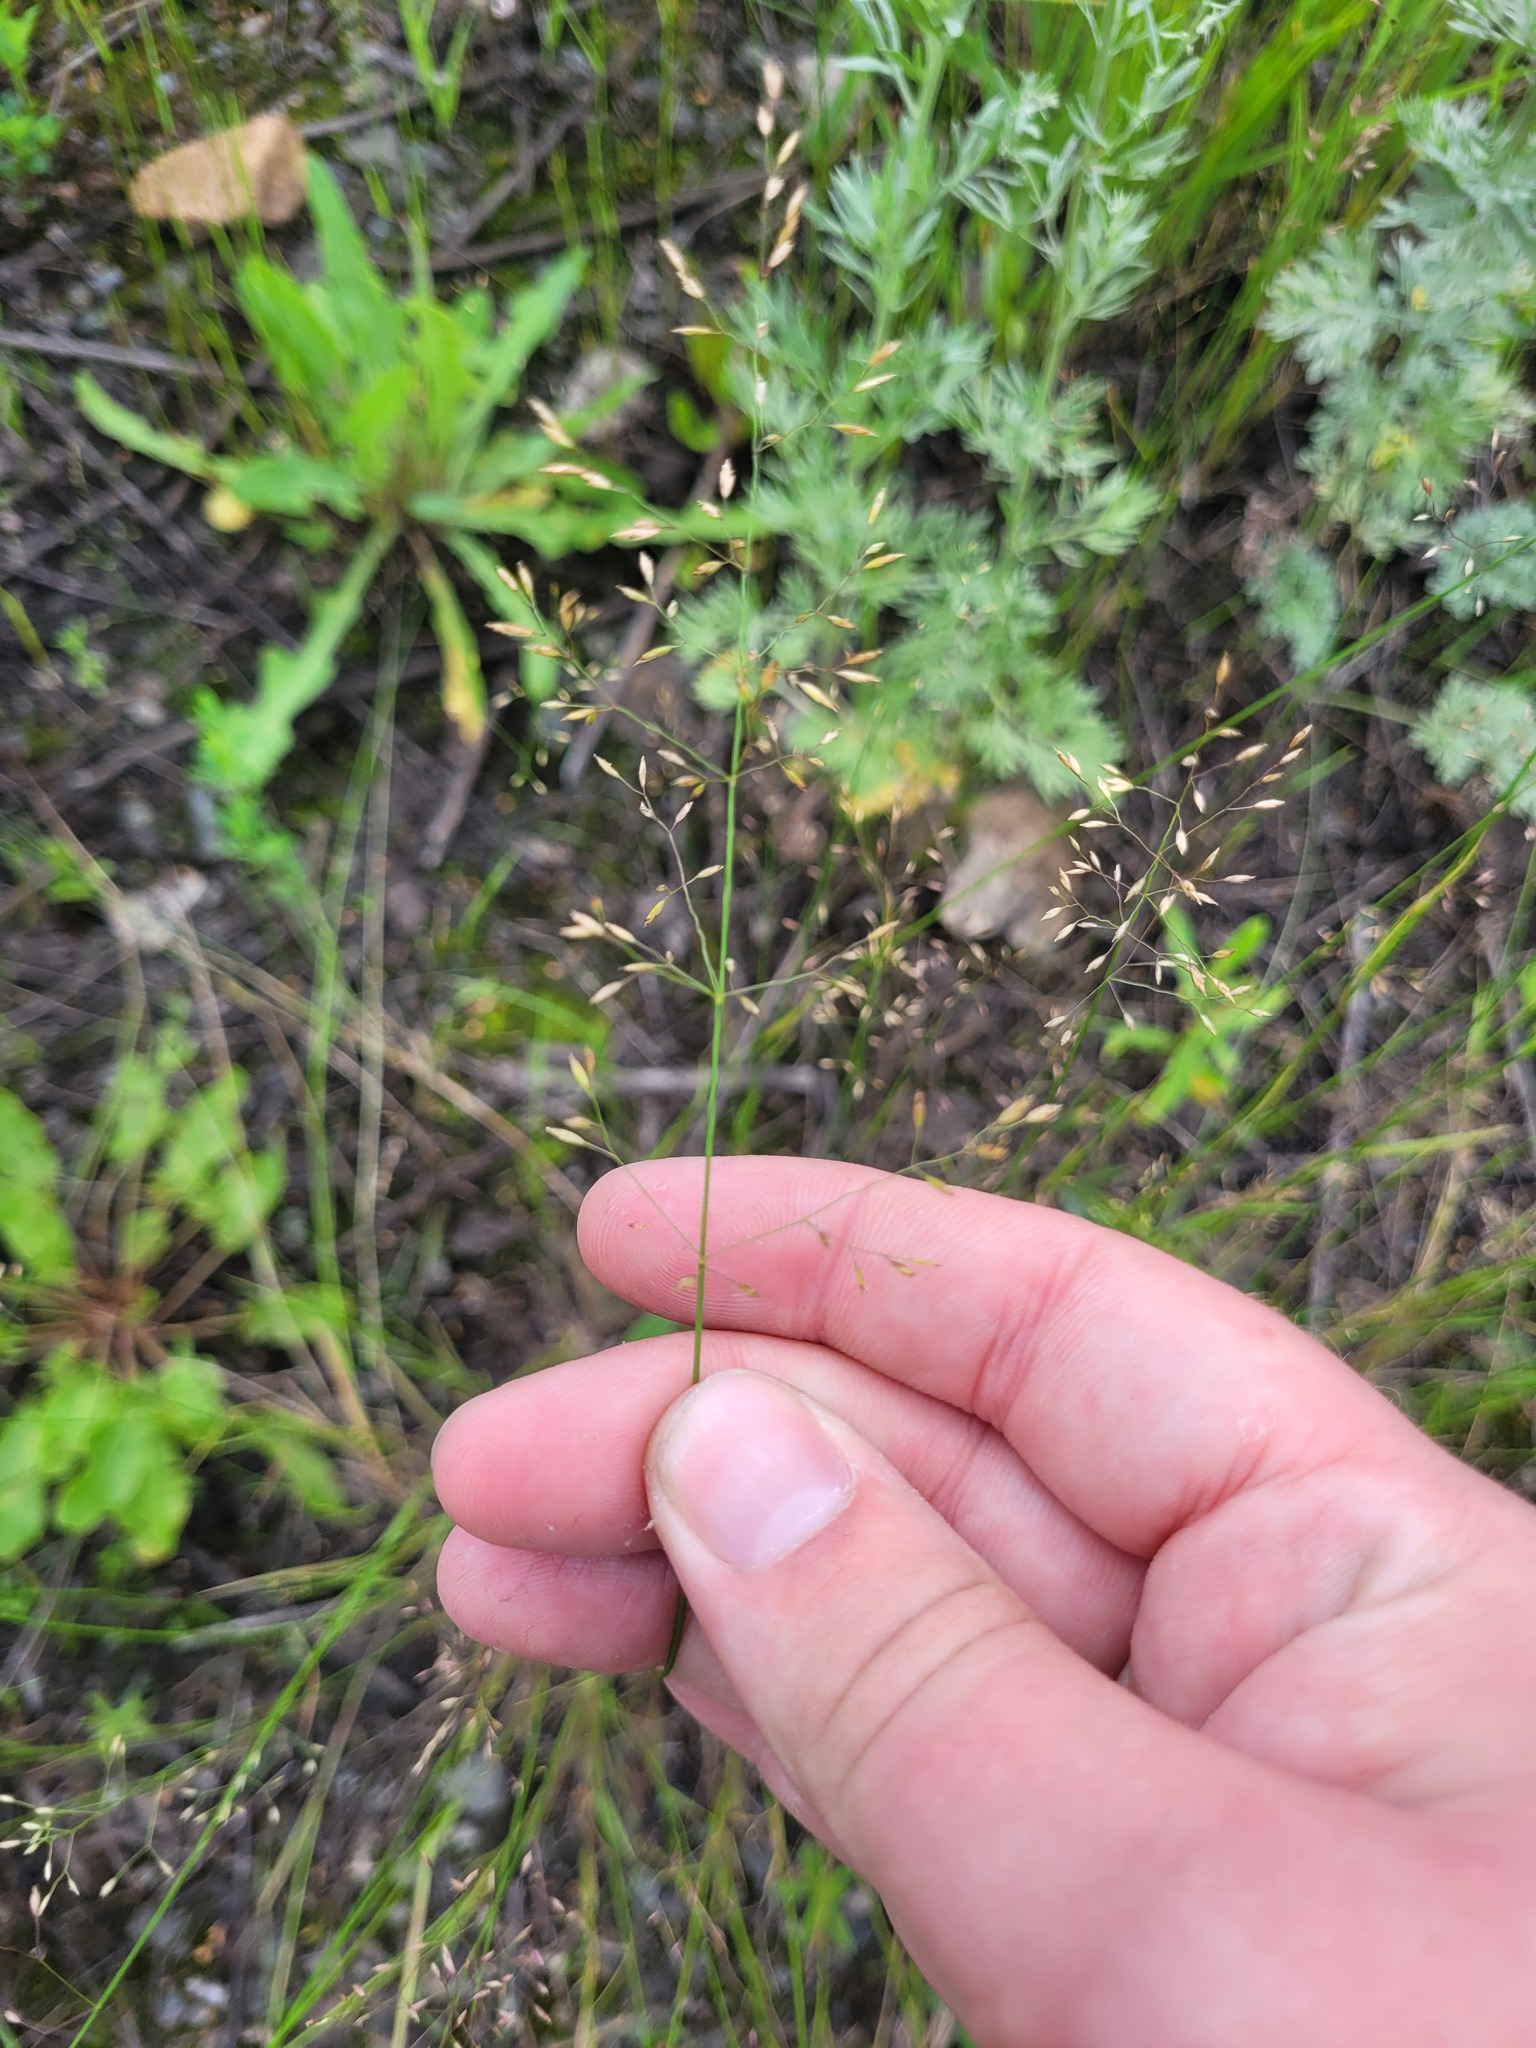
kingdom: Plantae
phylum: Tracheophyta
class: Liliopsida
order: Poales
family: Poaceae
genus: Poa
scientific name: Poa palustris
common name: Swamp meadow-grass
